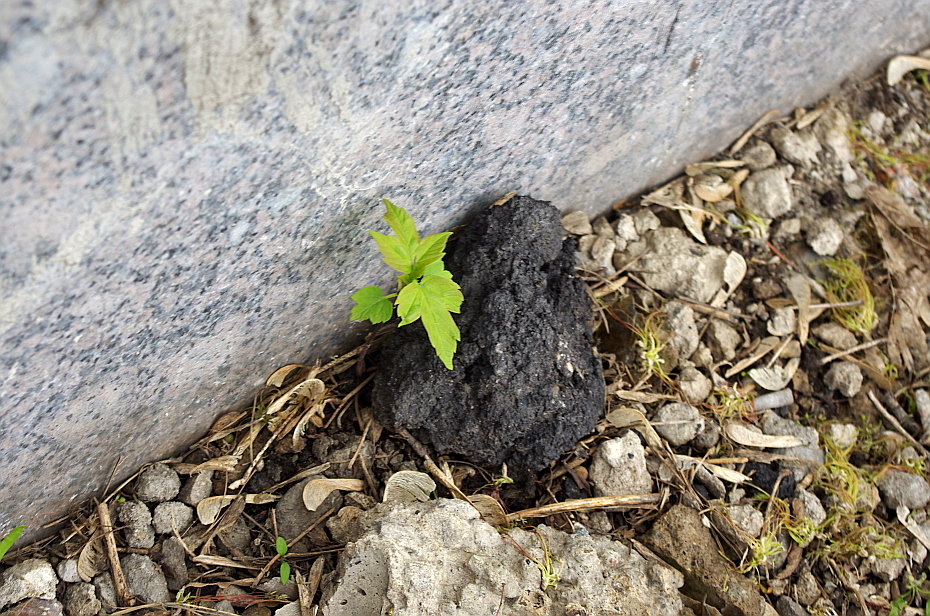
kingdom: Plantae
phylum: Tracheophyta
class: Magnoliopsida
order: Sapindales
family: Sapindaceae
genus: Acer
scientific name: Acer negundo
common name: Ashleaf maple
